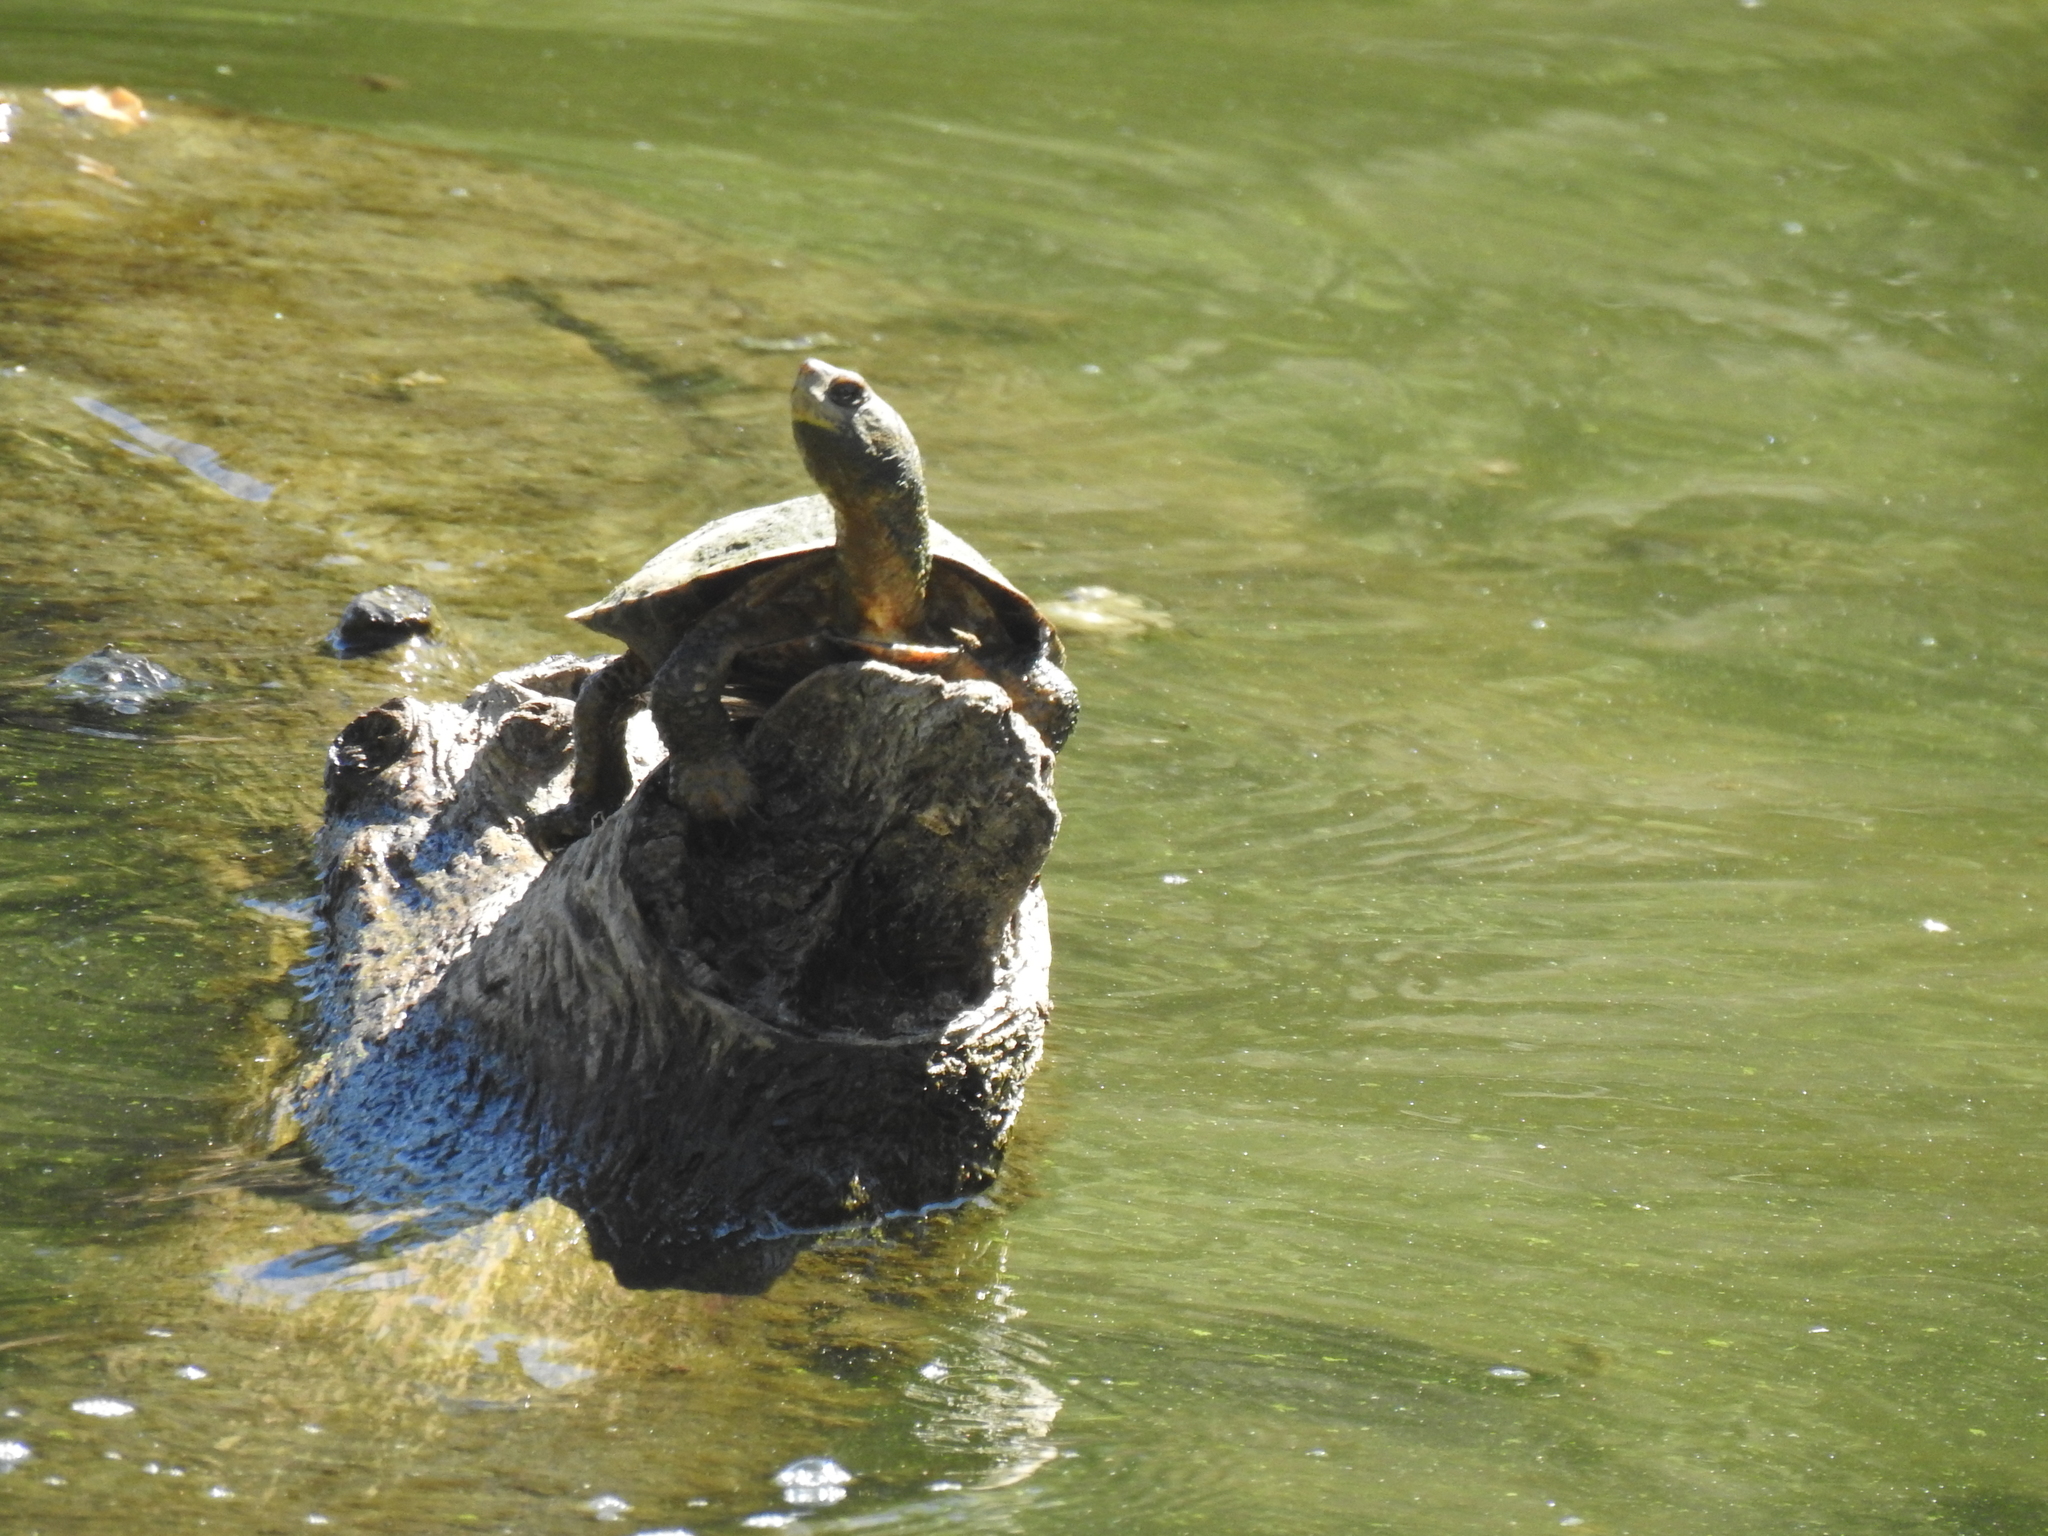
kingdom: Animalia
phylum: Chordata
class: Testudines
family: Emydidae
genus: Actinemys
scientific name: Actinemys marmorata
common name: Western pond turtle
